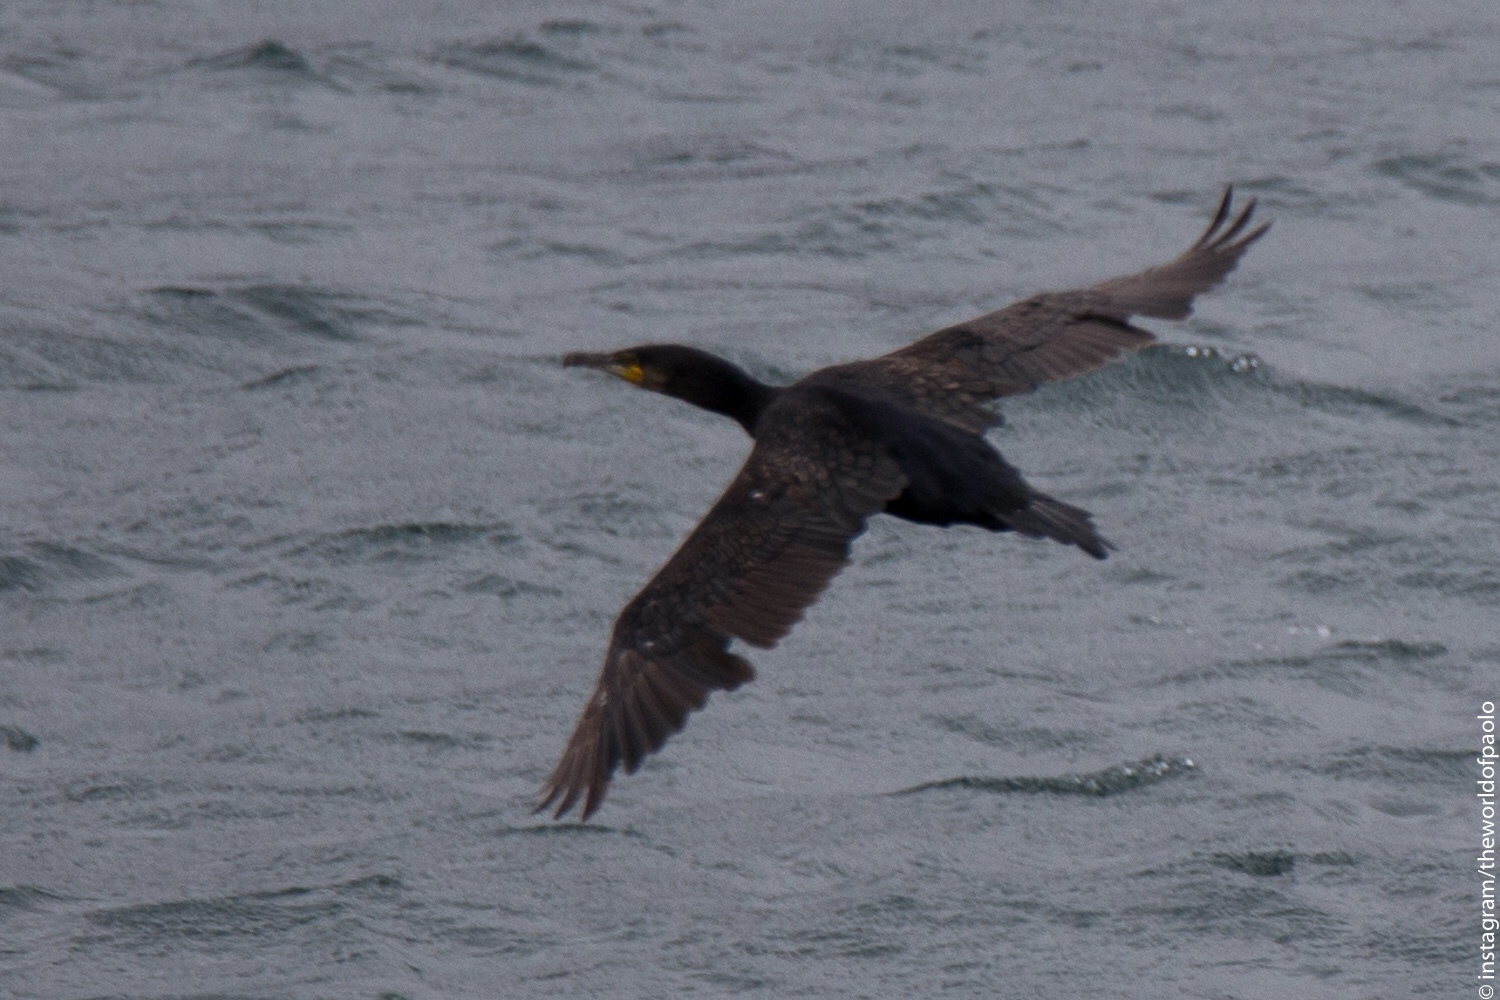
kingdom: Animalia
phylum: Chordata
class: Aves
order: Suliformes
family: Phalacrocoracidae
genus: Phalacrocorax
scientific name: Phalacrocorax carbo
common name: Great cormorant
